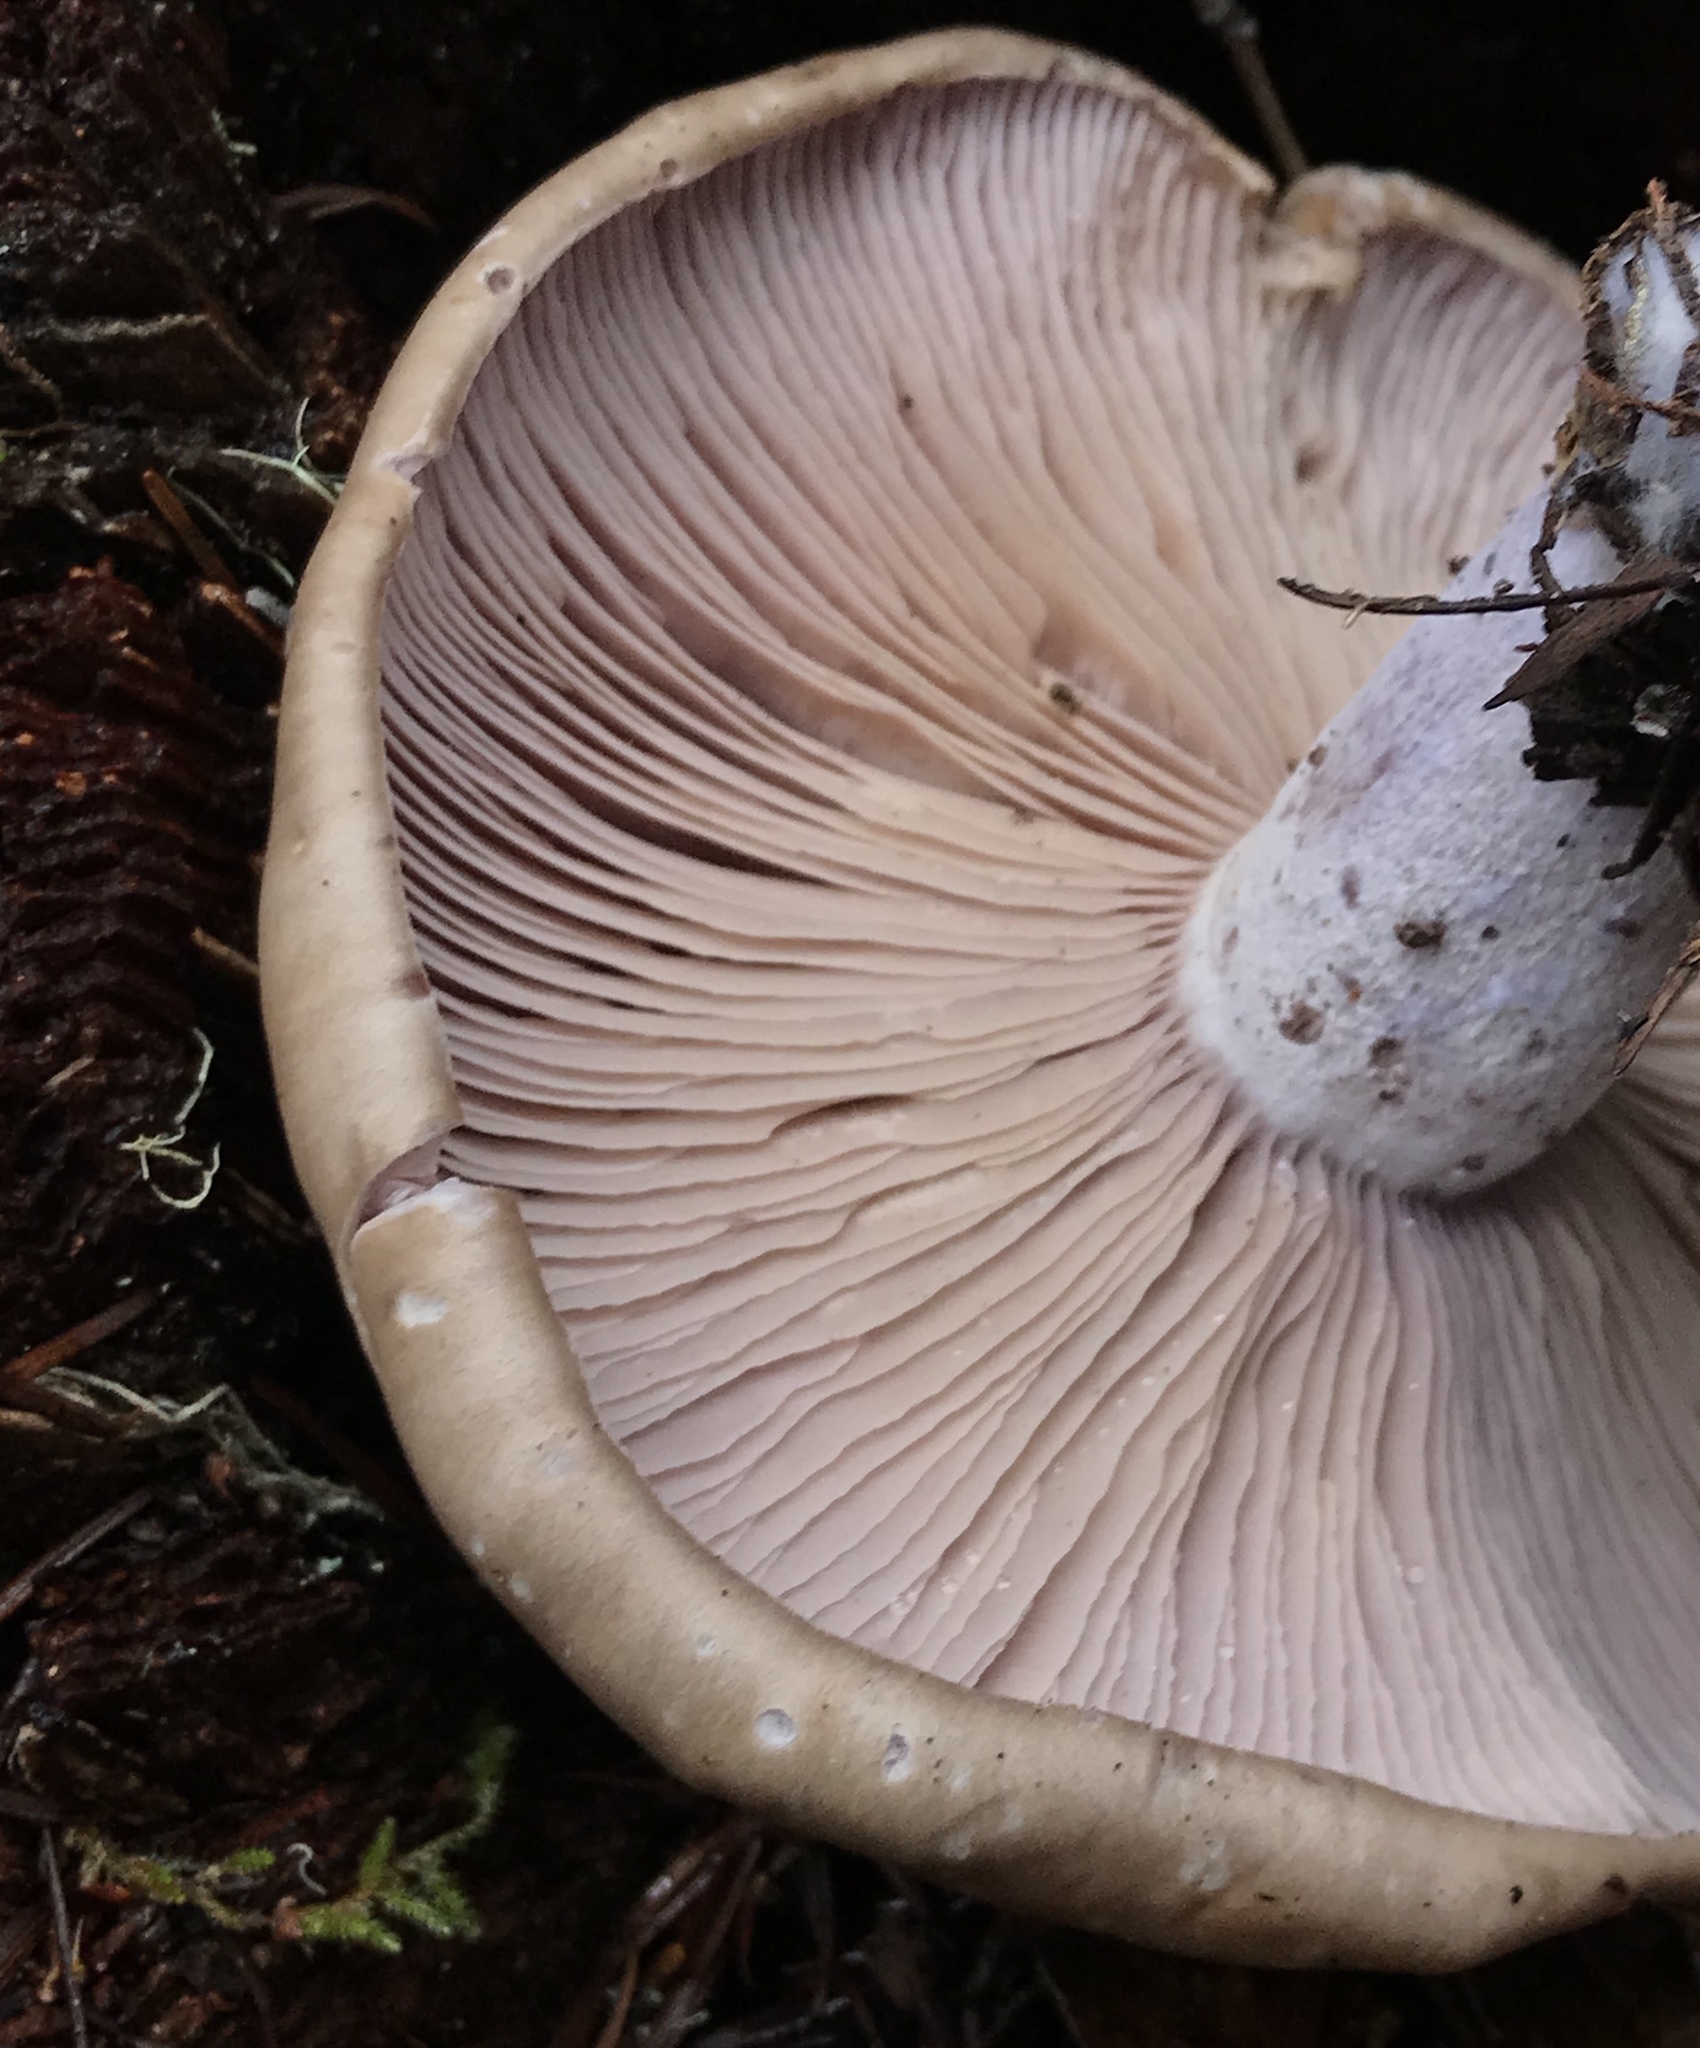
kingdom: Fungi
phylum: Basidiomycota
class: Agaricomycetes
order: Agaricales
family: Tricholomataceae
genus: Collybia
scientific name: Collybia
